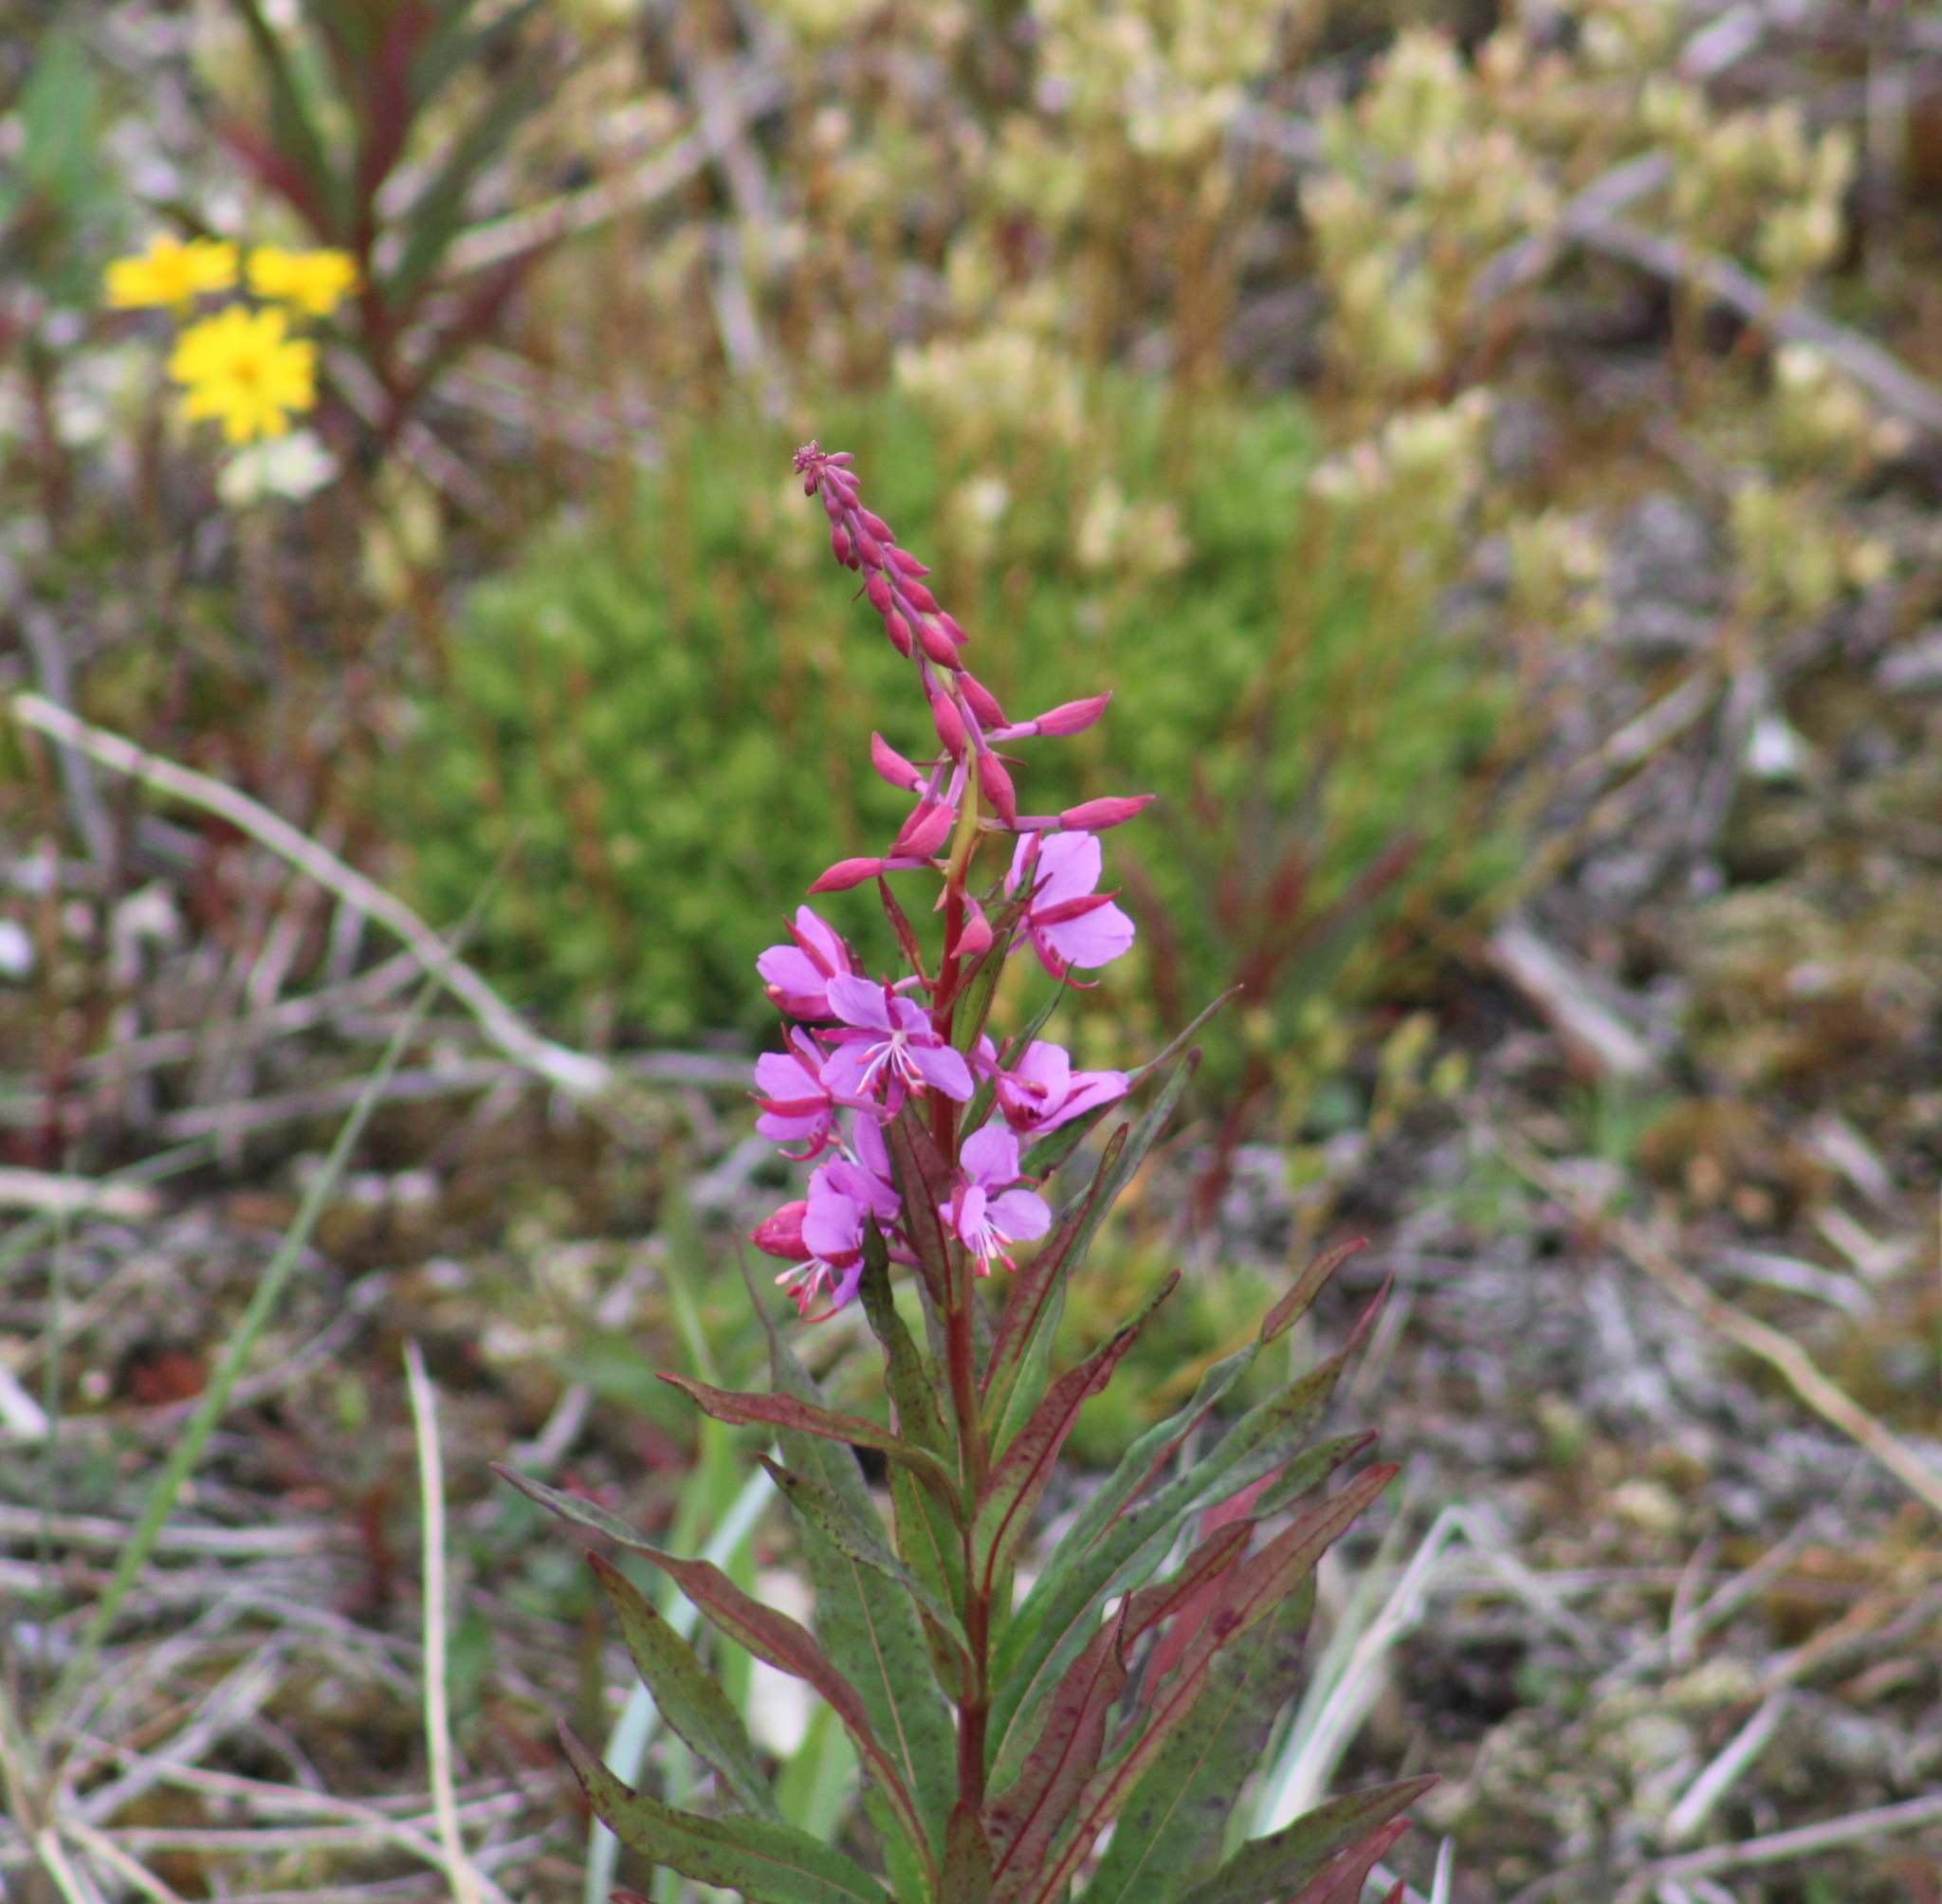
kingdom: Plantae
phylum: Tracheophyta
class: Magnoliopsida
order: Myrtales
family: Onagraceae
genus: Chamaenerion
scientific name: Chamaenerion angustifolium
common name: Fireweed
